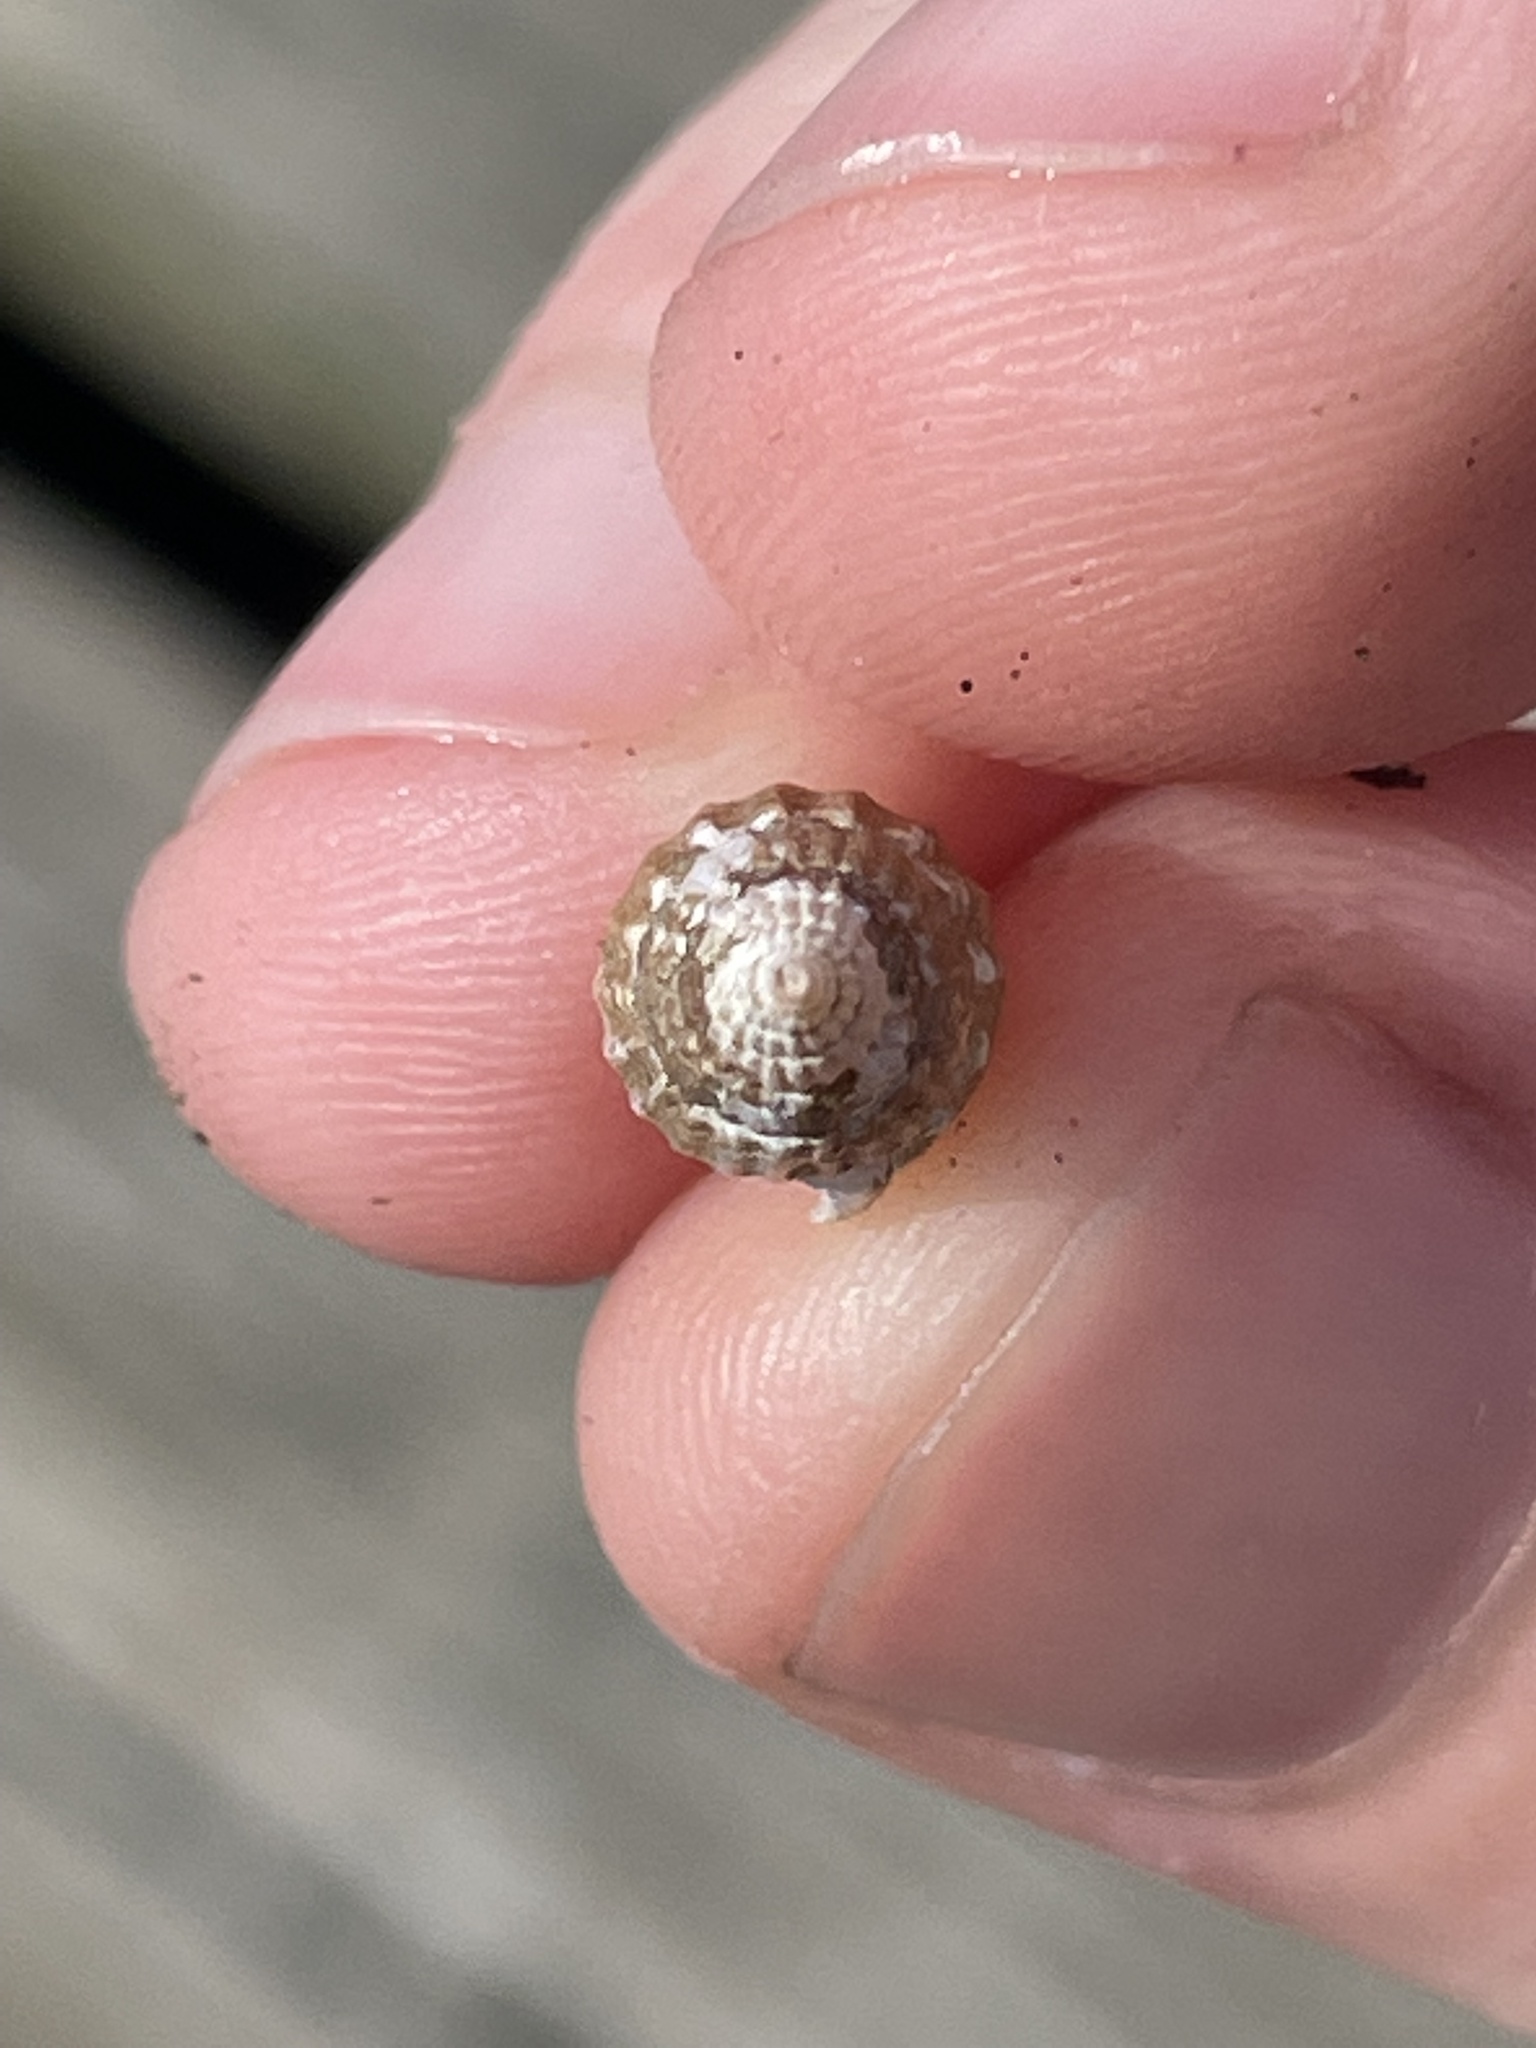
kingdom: Animalia
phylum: Mollusca
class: Gastropoda
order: Neogastropoda
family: Columbellidae
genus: Costoanachis
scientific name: Costoanachis translirata
